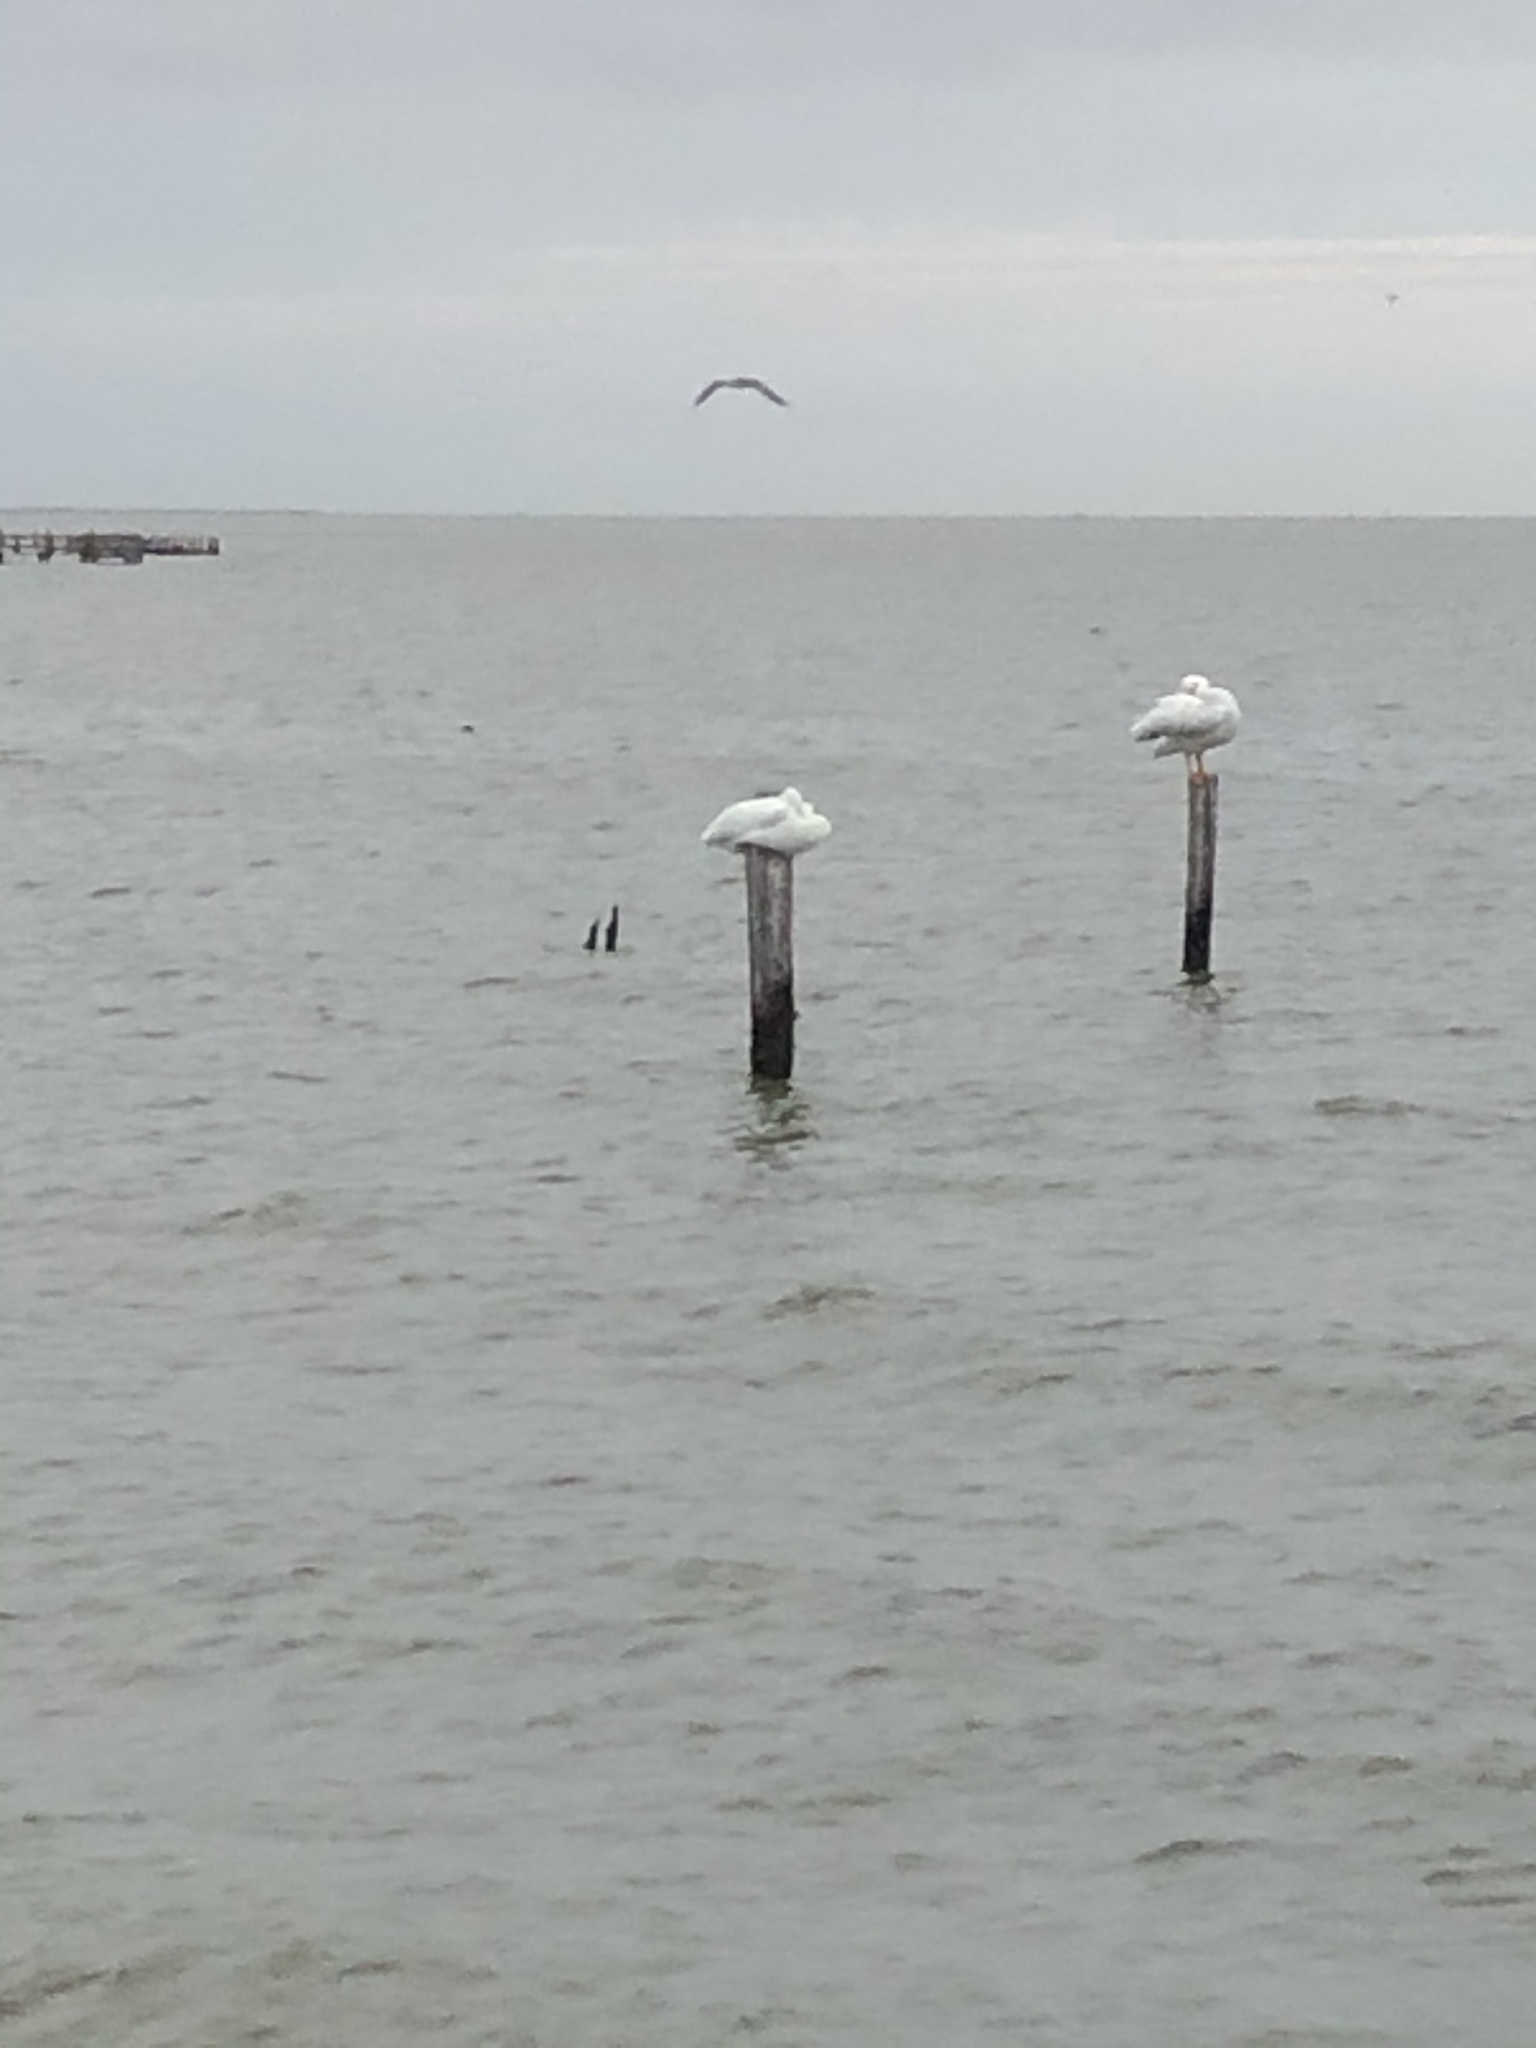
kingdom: Animalia
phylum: Chordata
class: Aves
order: Pelecaniformes
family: Pelecanidae
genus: Pelecanus
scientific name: Pelecanus erythrorhynchos
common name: American white pelican
